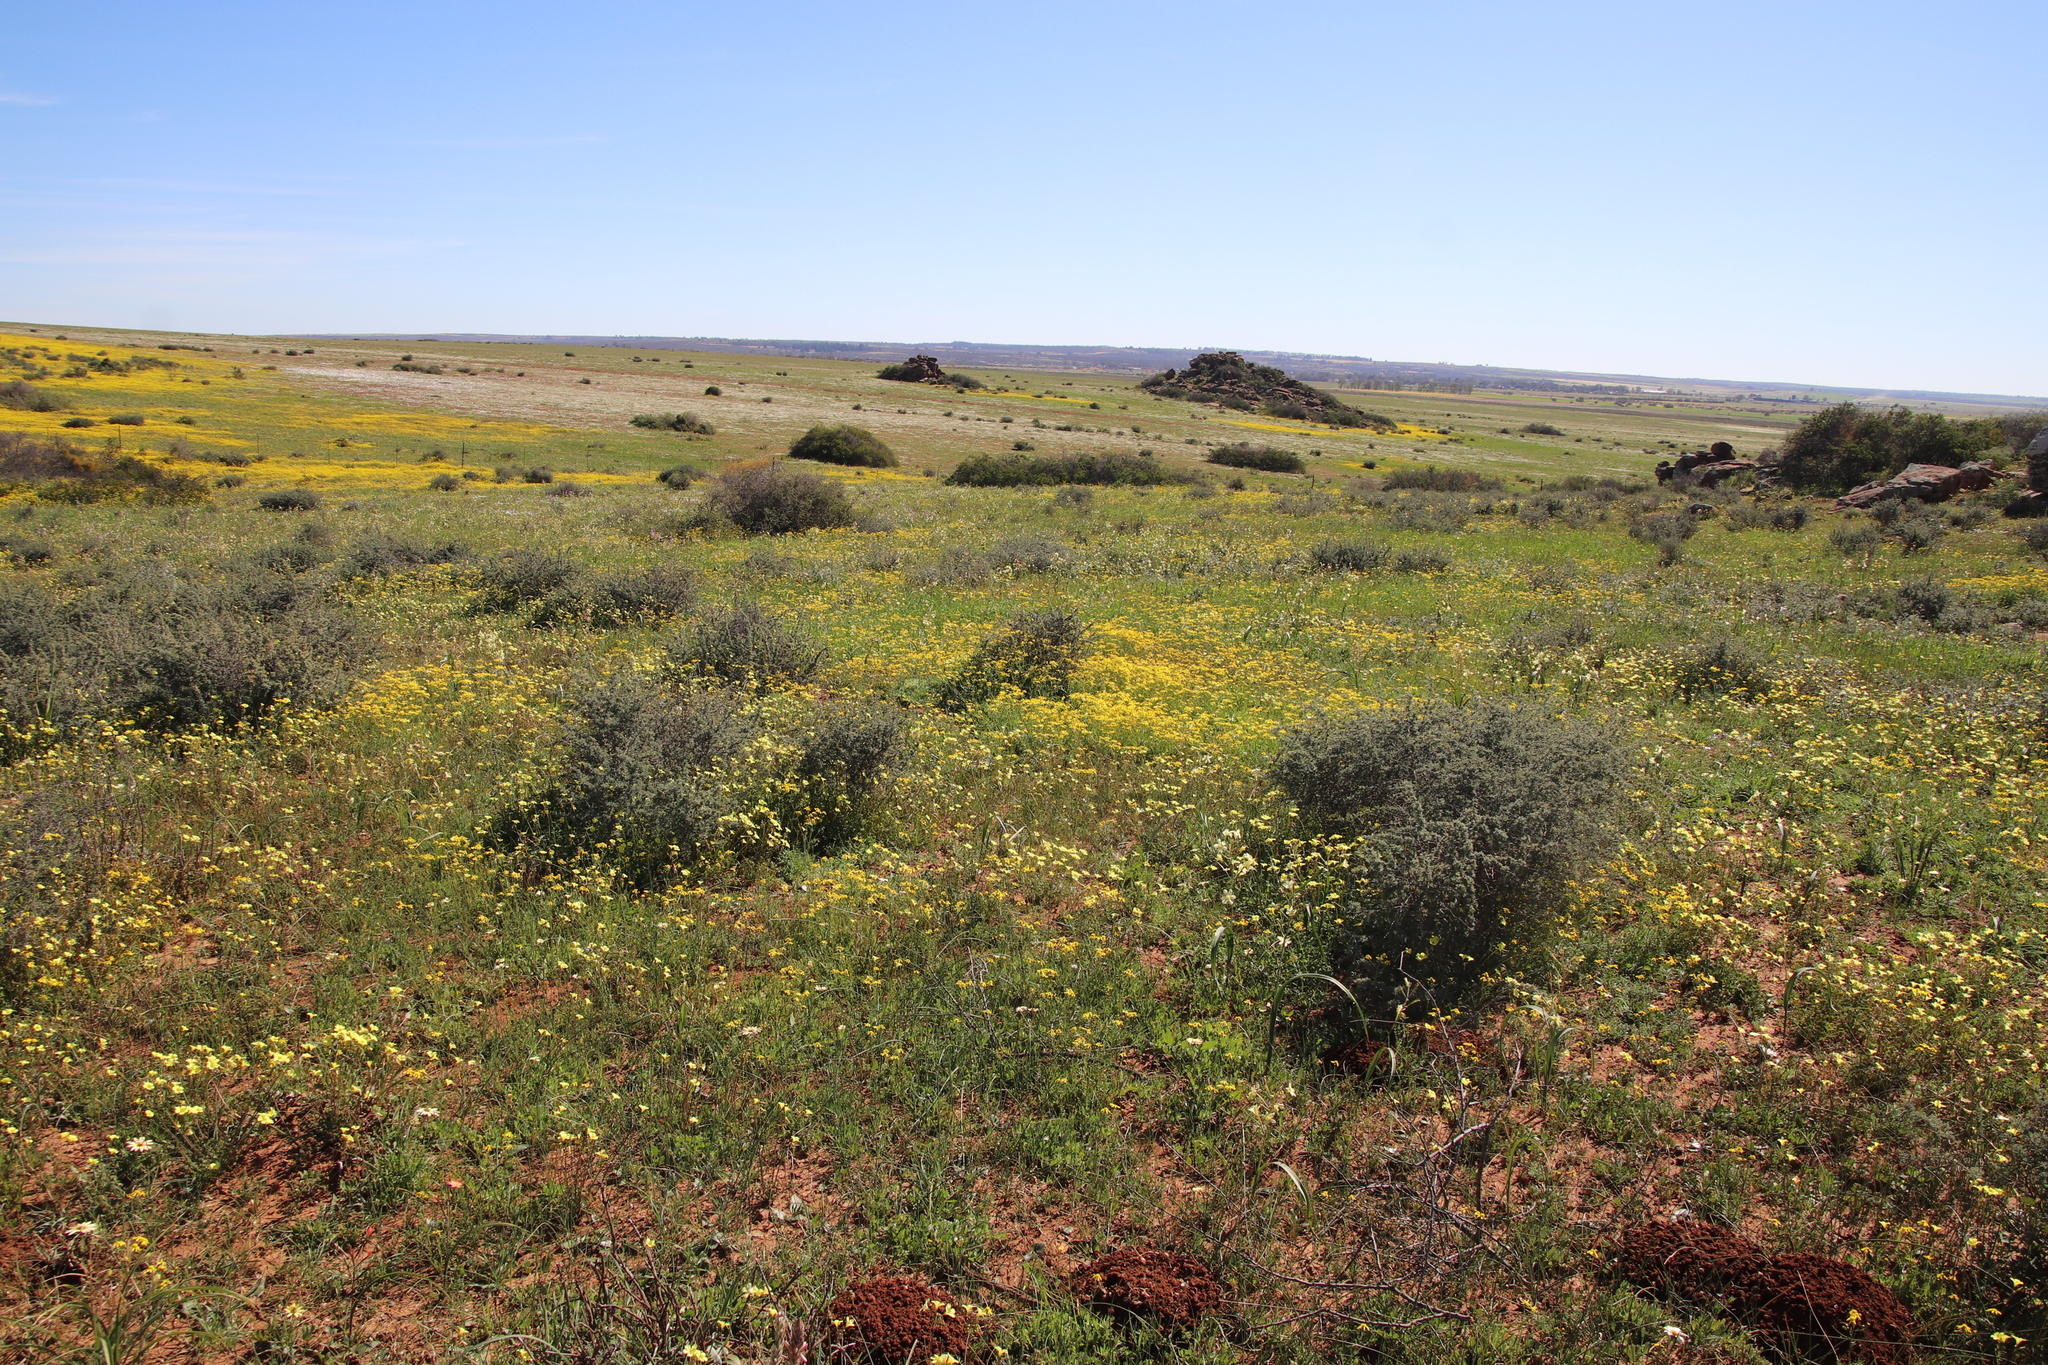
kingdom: Plantae
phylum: Tracheophyta
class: Magnoliopsida
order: Asterales
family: Asteraceae
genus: Senecio
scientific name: Senecio abruptus
